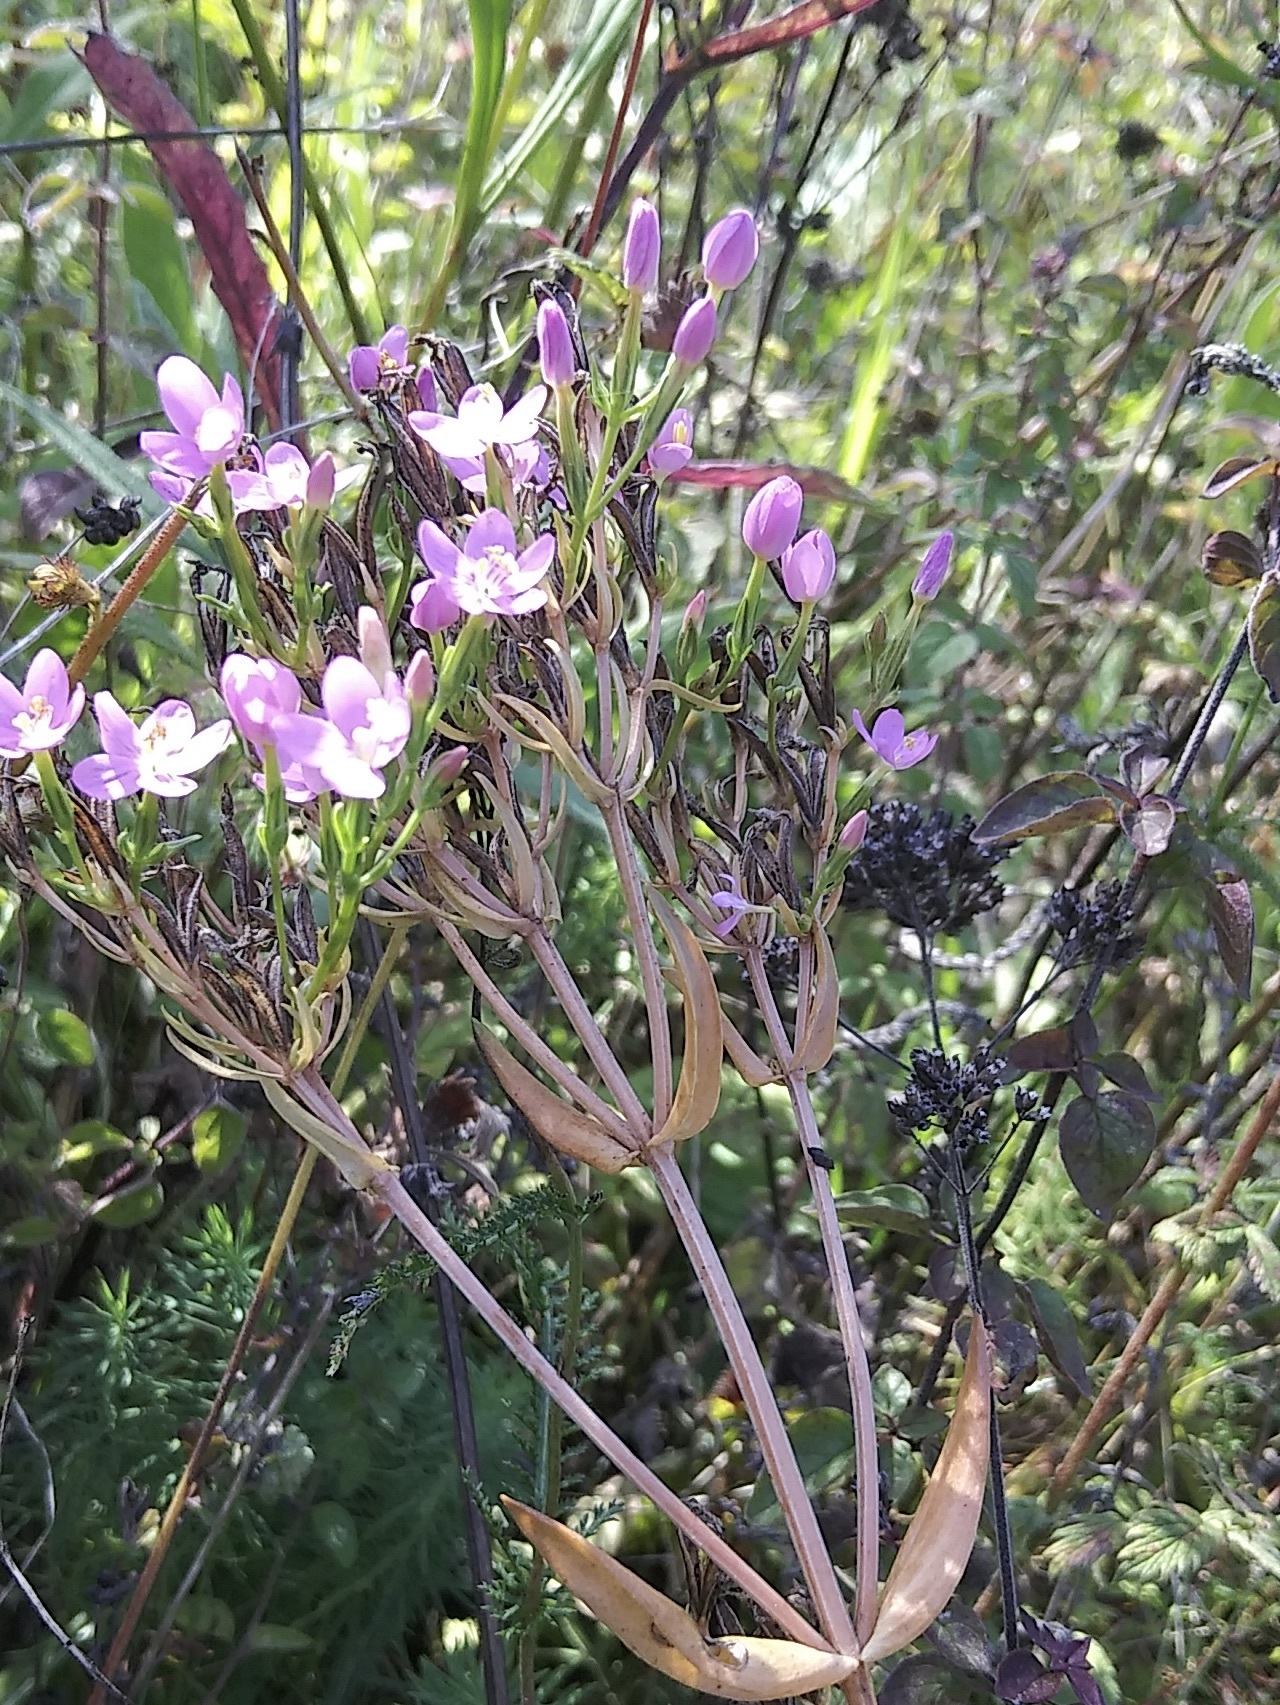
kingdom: Plantae
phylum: Tracheophyta
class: Magnoliopsida
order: Gentianales
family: Gentianaceae
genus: Centaurium
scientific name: Centaurium erythraea
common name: Common centaury
